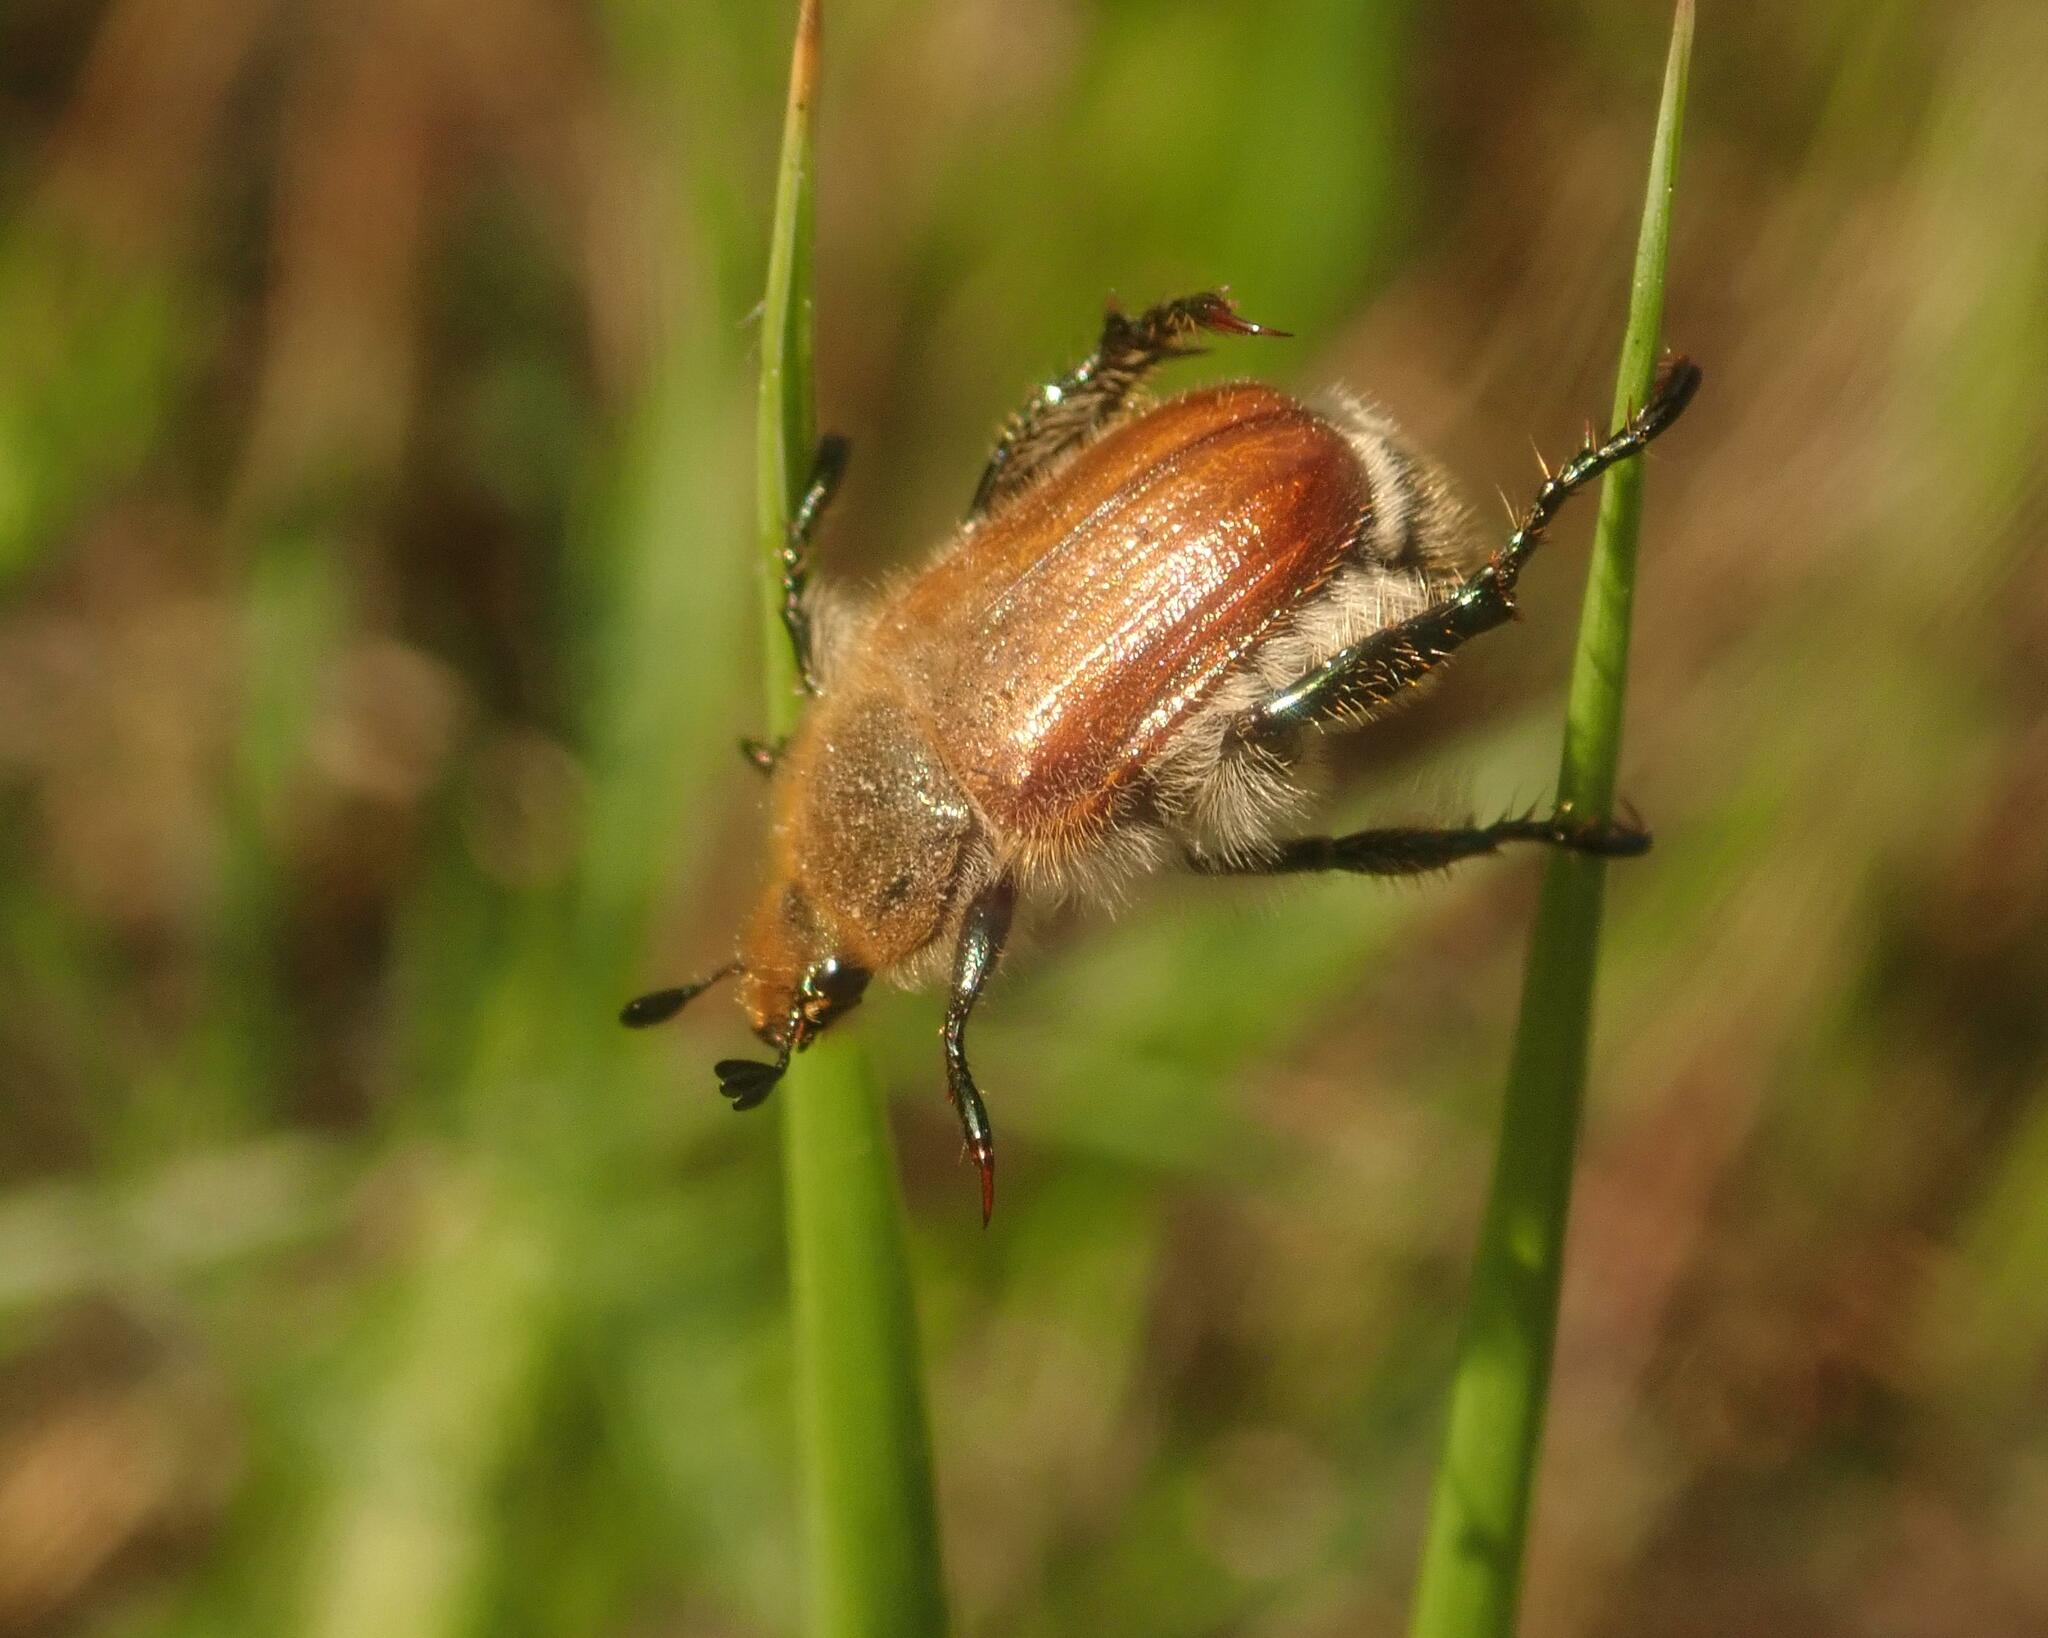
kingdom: Animalia
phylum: Arthropoda
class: Insecta
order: Coleoptera
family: Scarabaeidae
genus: Chaetopteroplia
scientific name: Chaetopteroplia segetum
